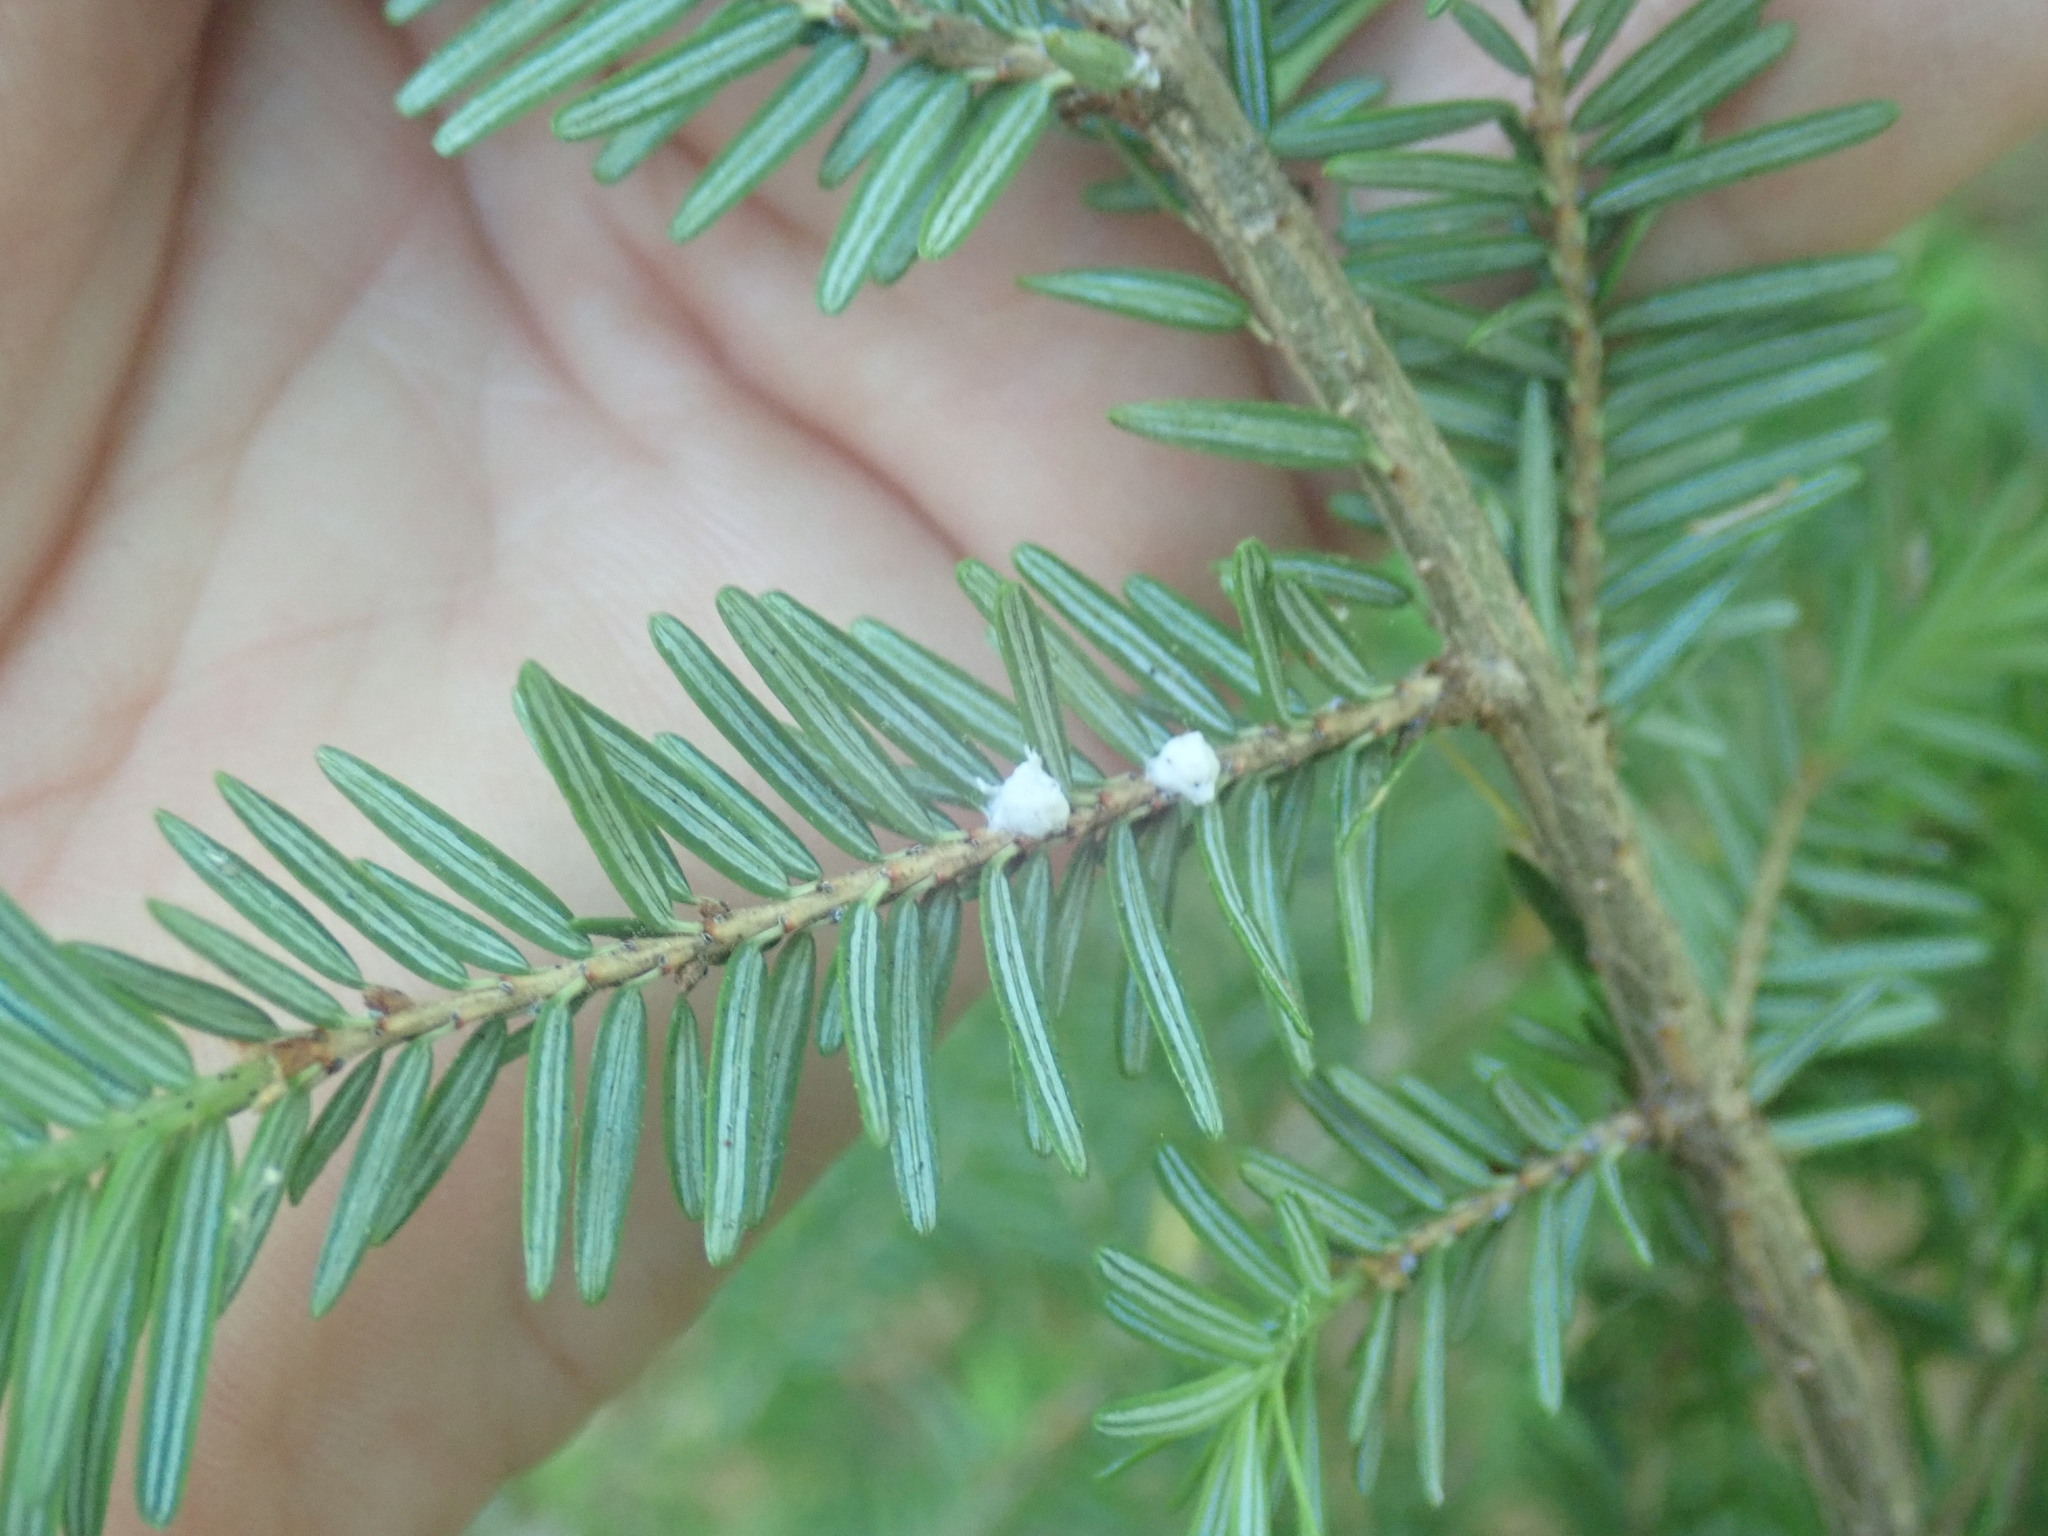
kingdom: Animalia
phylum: Arthropoda
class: Insecta
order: Hemiptera
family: Adelgidae
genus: Adelges
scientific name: Adelges tsugae
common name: Hemlock woolly adelgid
